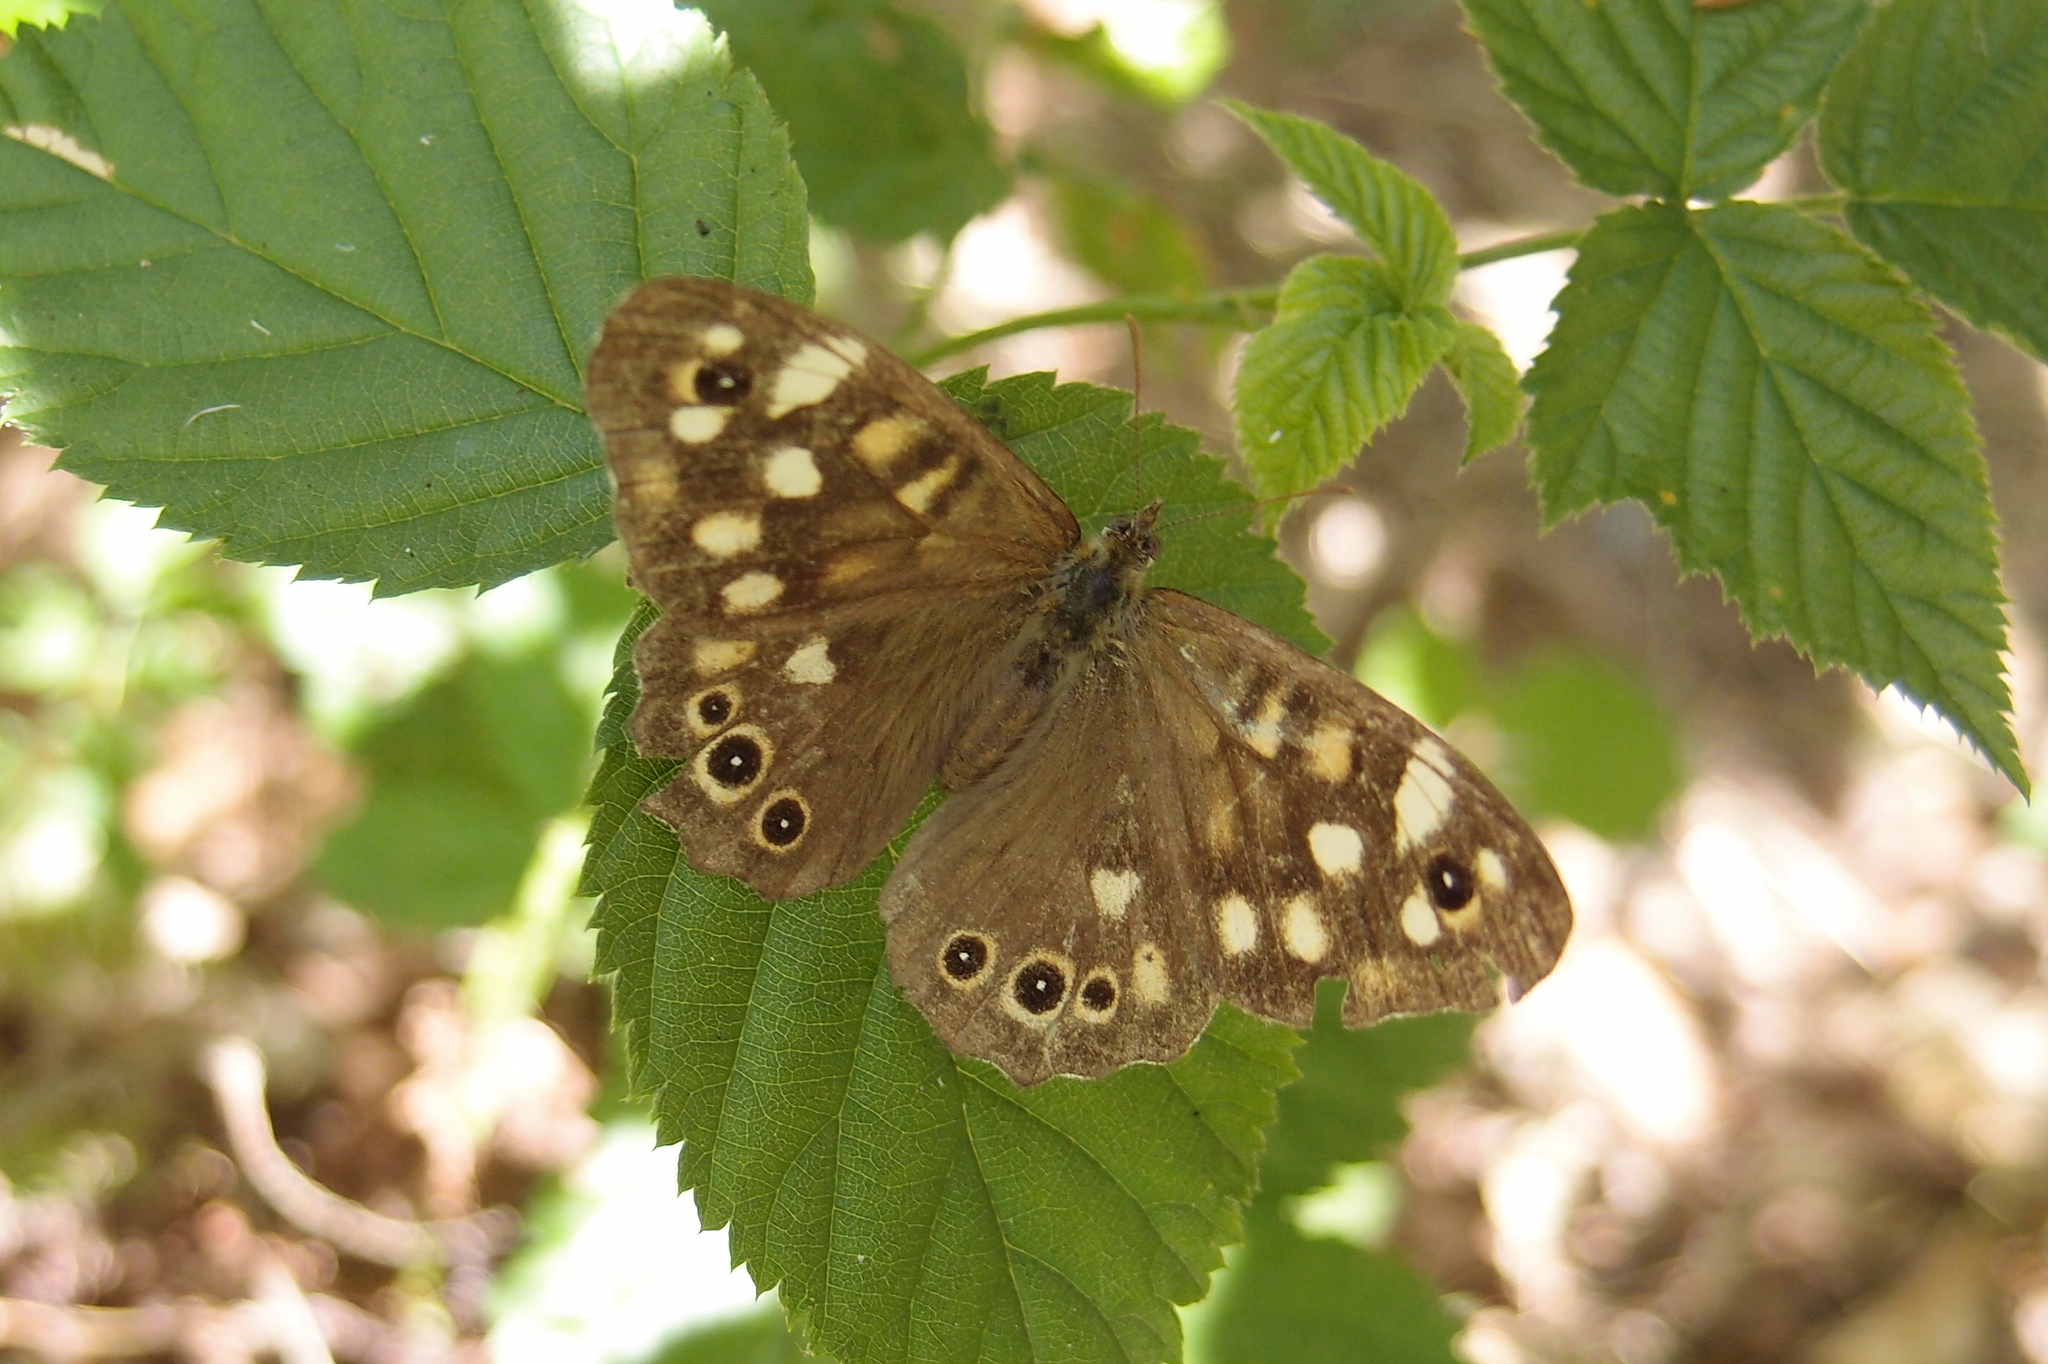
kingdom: Animalia
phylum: Arthropoda
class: Insecta
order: Lepidoptera
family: Nymphalidae
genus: Pararge
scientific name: Pararge aegeria
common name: Speckled wood
